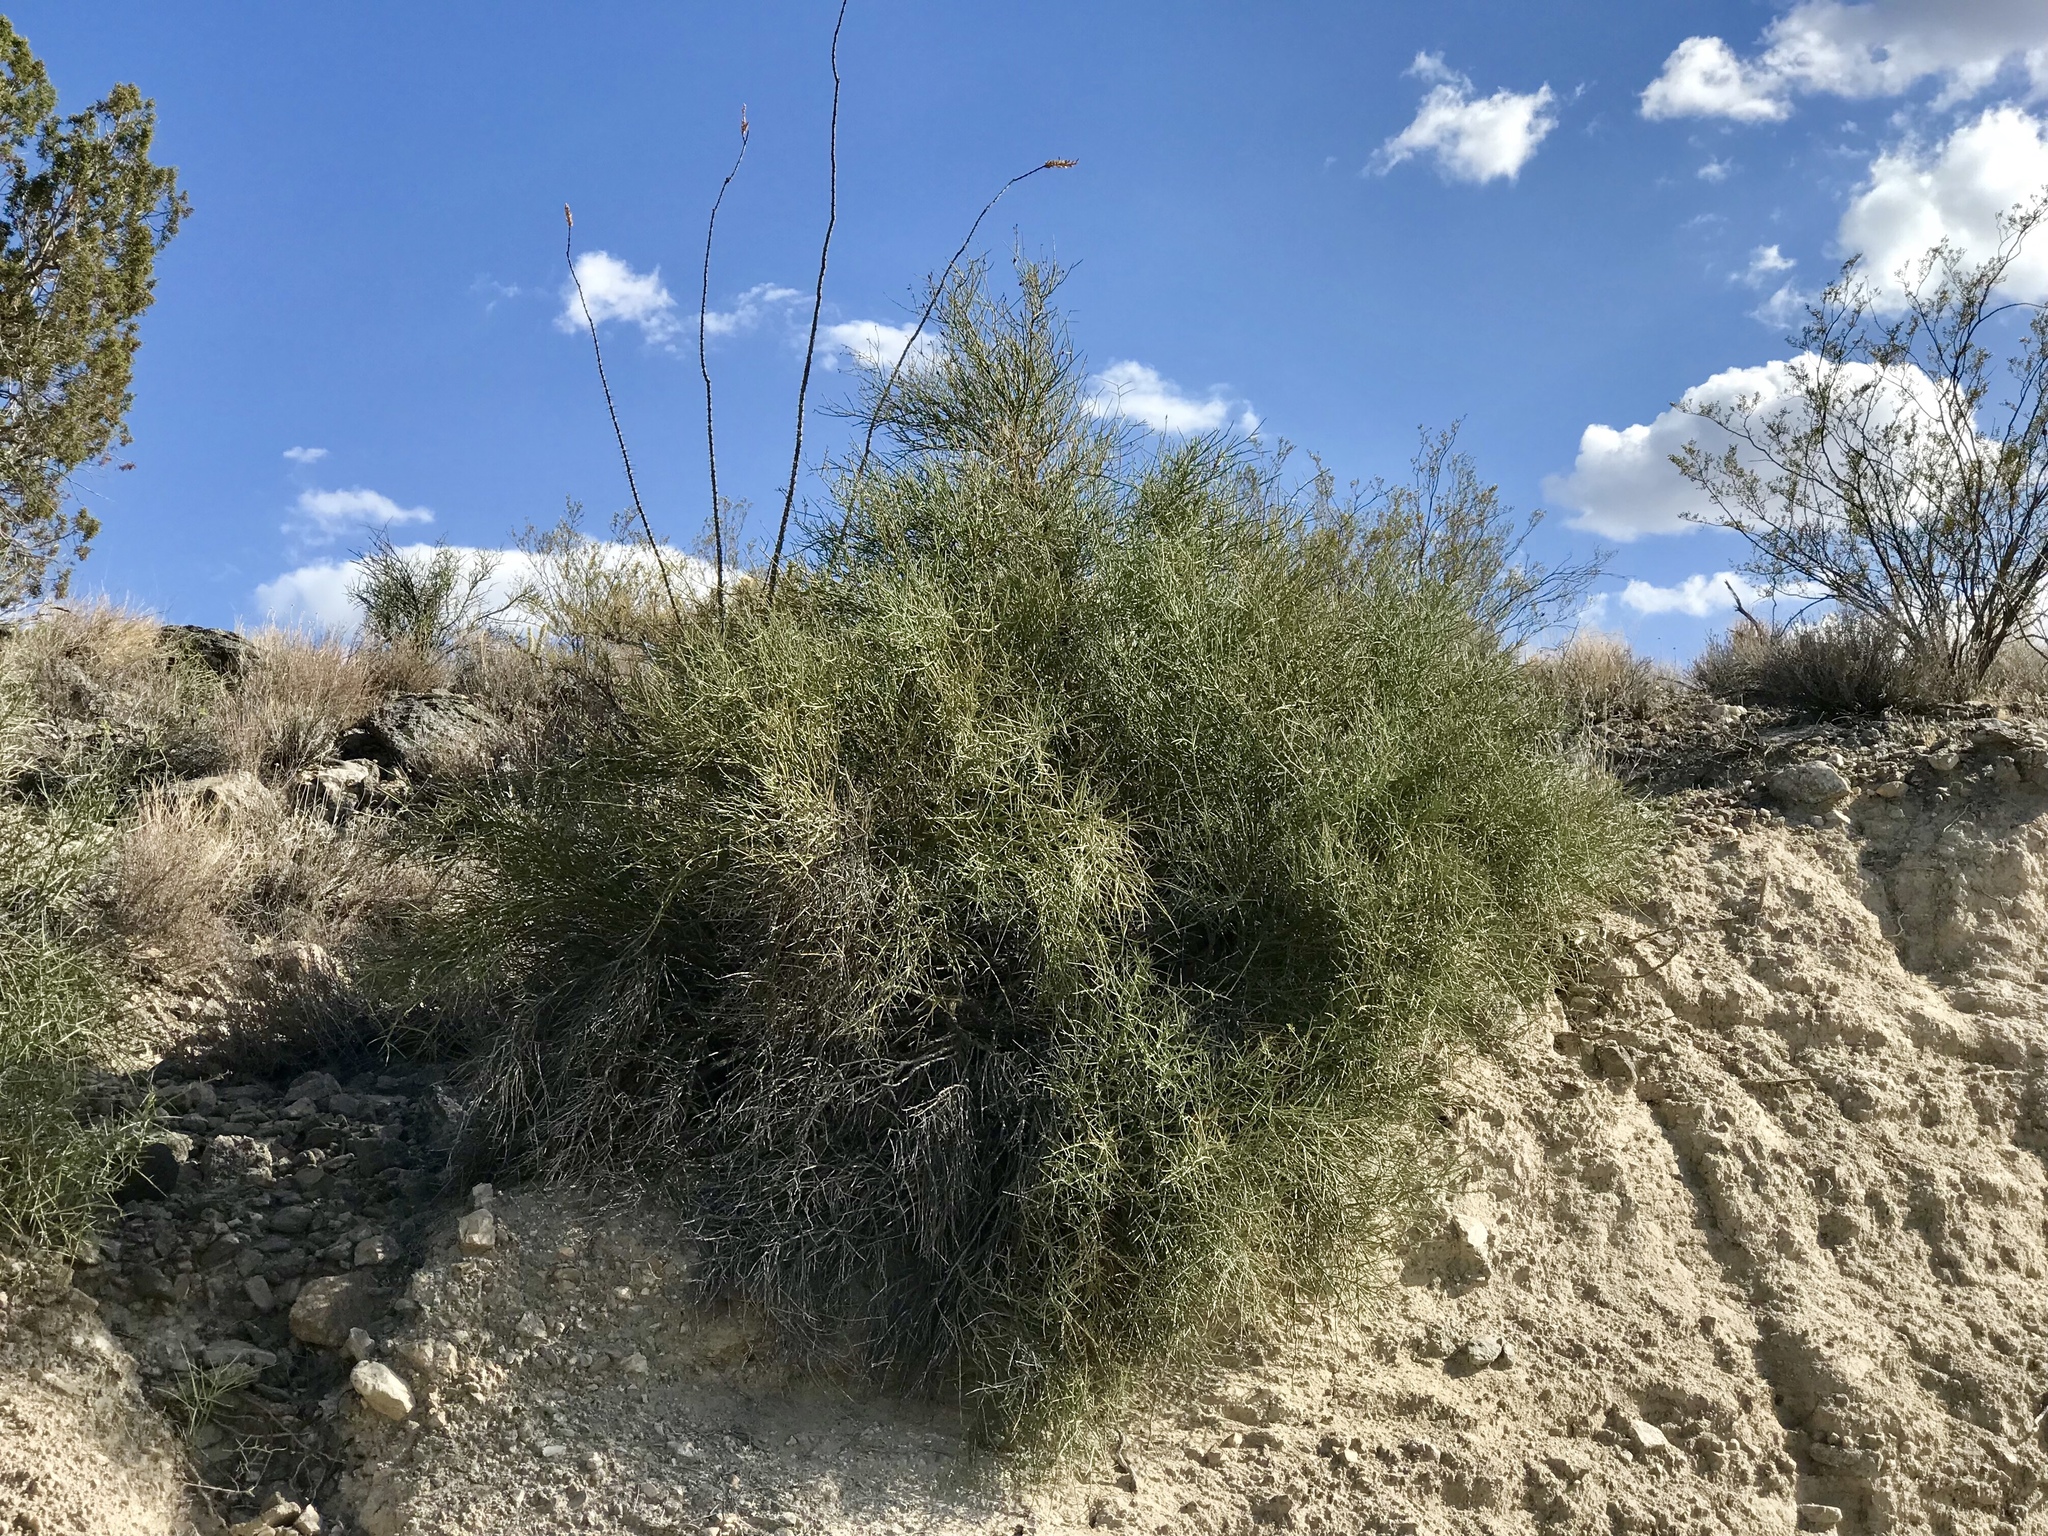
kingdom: Plantae
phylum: Tracheophyta
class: Magnoliopsida
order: Celastrales
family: Celastraceae
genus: Canotia
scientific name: Canotia holacantha
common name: Crucifixion thorns
